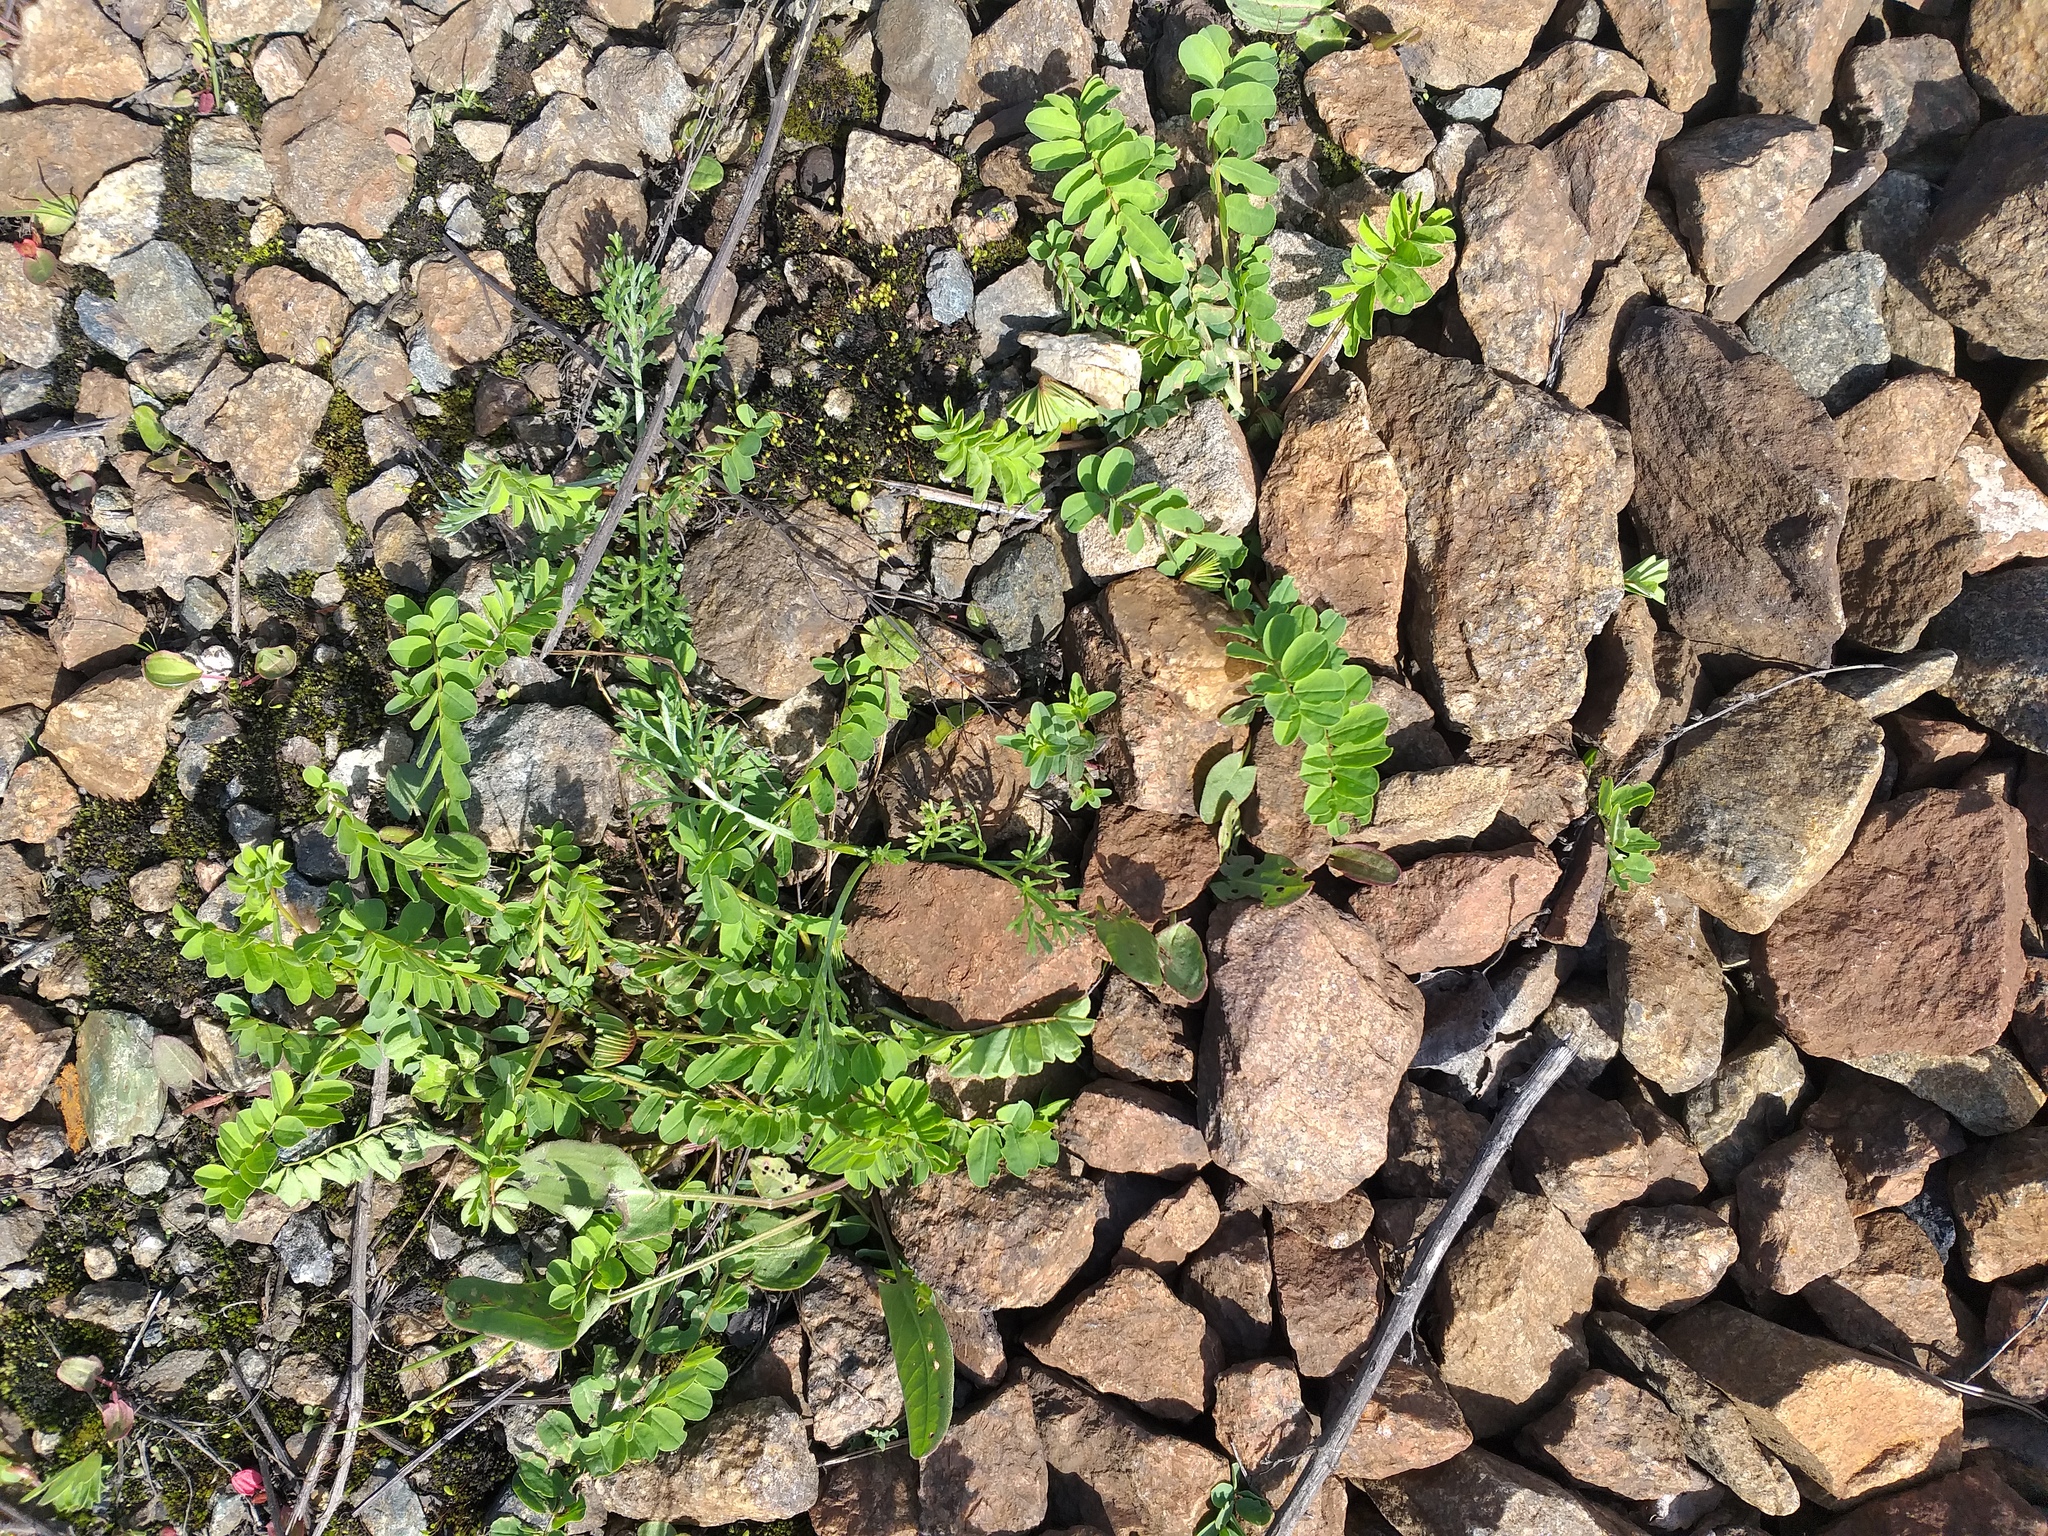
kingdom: Plantae
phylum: Tracheophyta
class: Magnoliopsida
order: Fabales
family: Fabaceae
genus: Coronilla
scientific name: Coronilla varia
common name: Crownvetch
